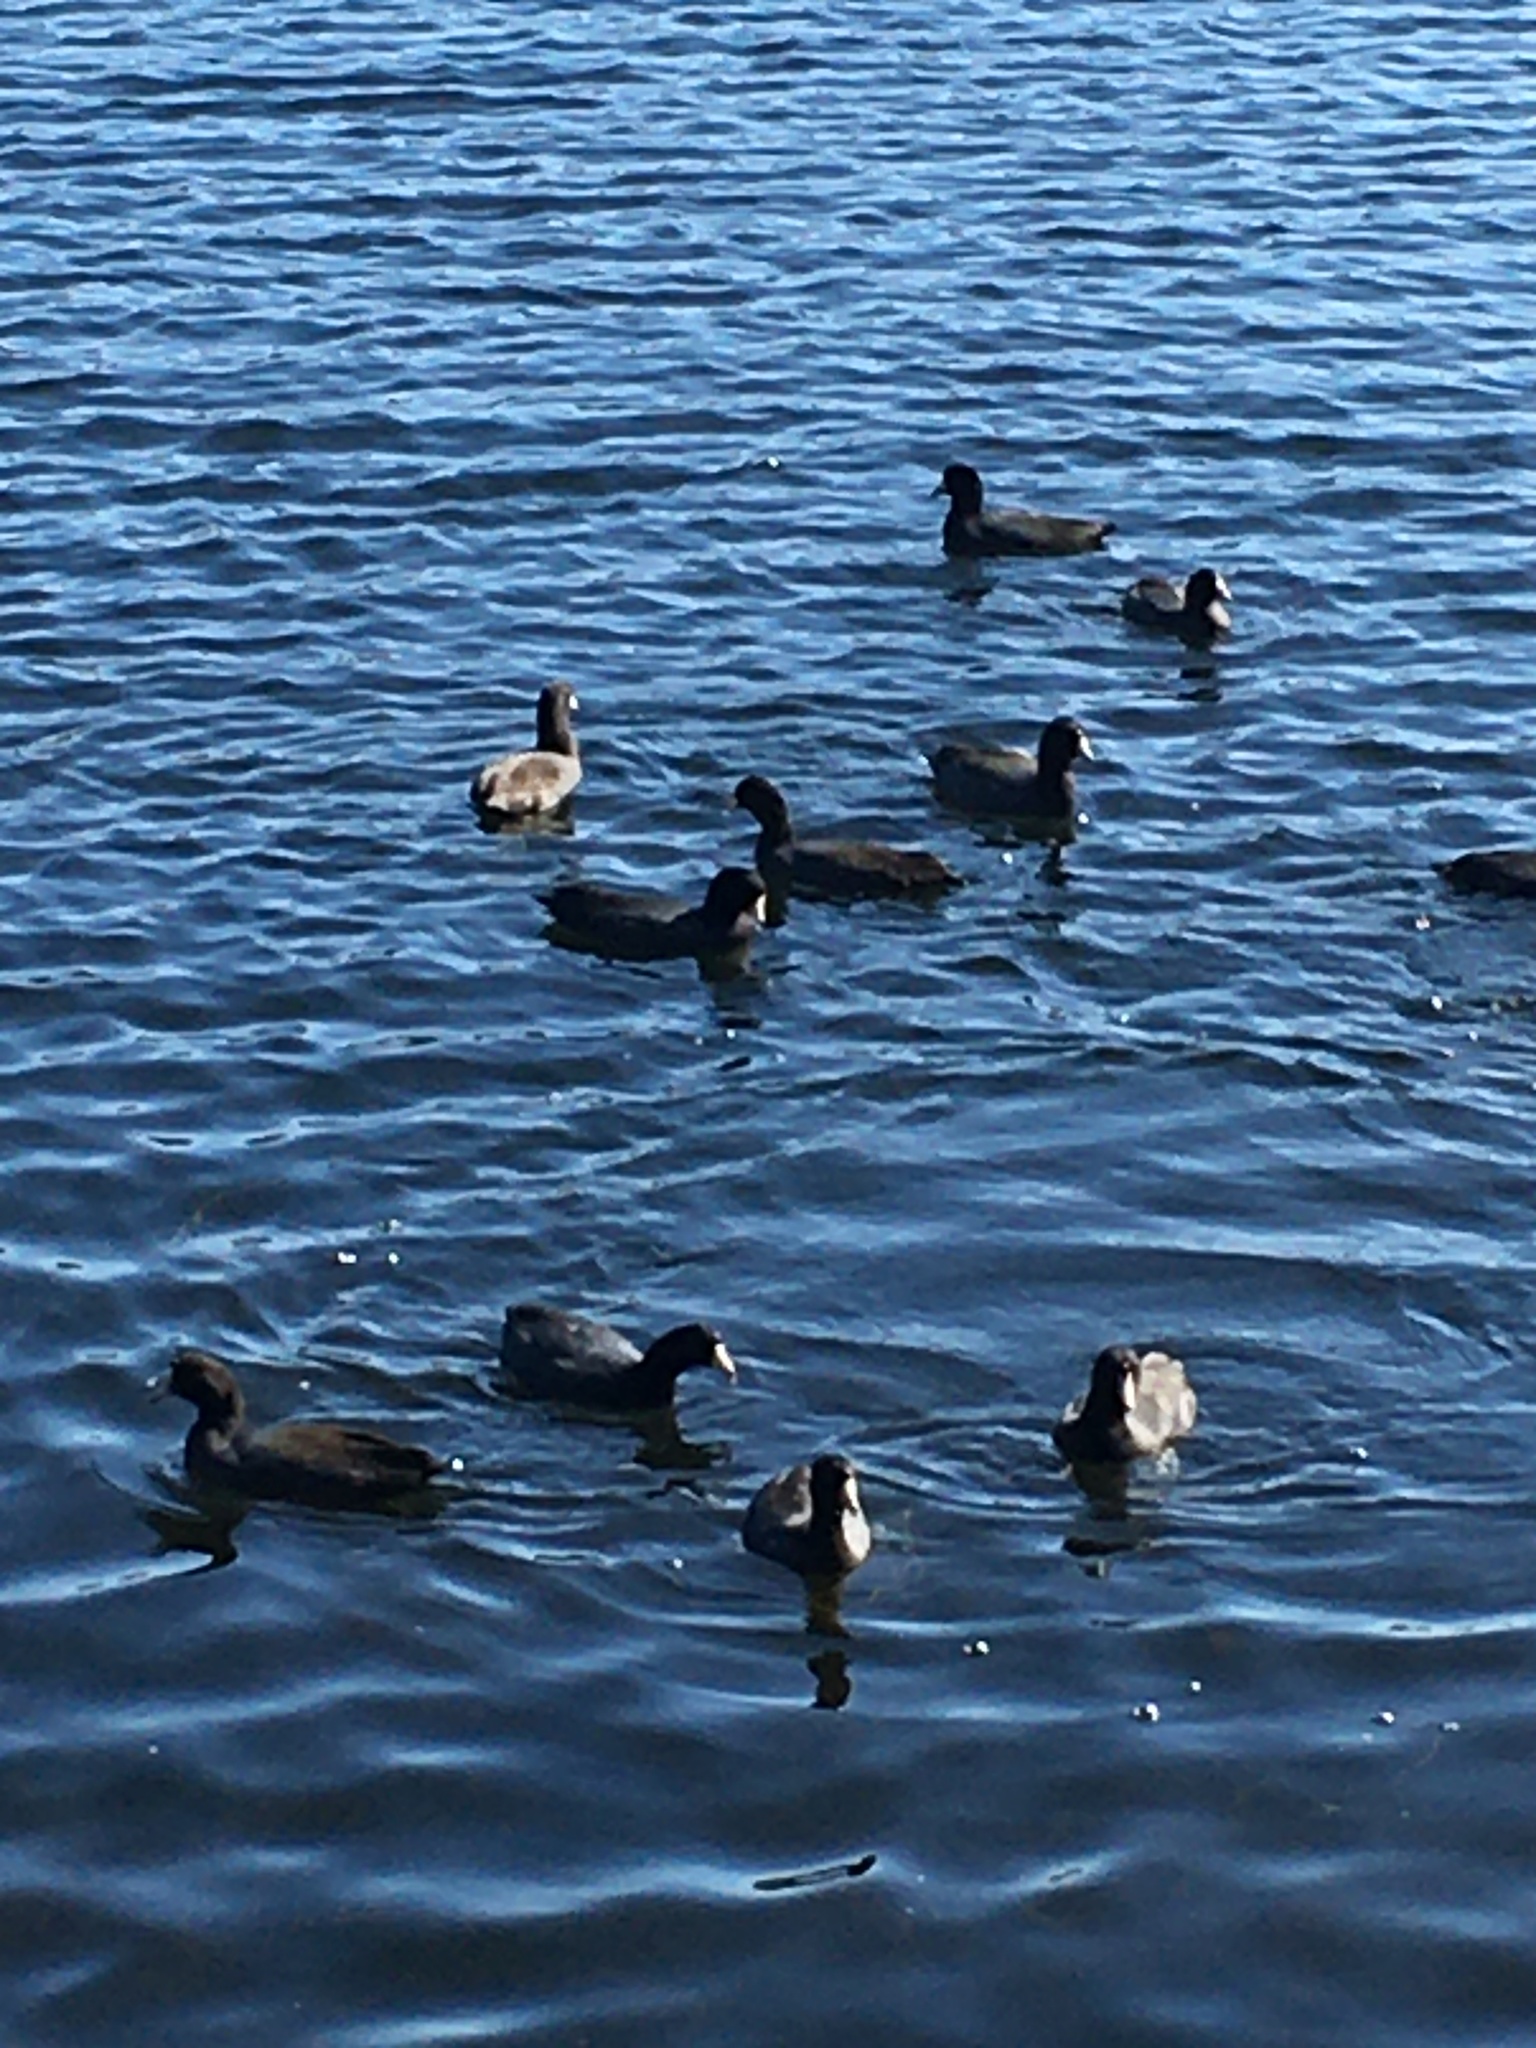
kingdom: Animalia
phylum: Chordata
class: Aves
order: Gruiformes
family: Rallidae
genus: Fulica
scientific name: Fulica americana
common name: American coot
